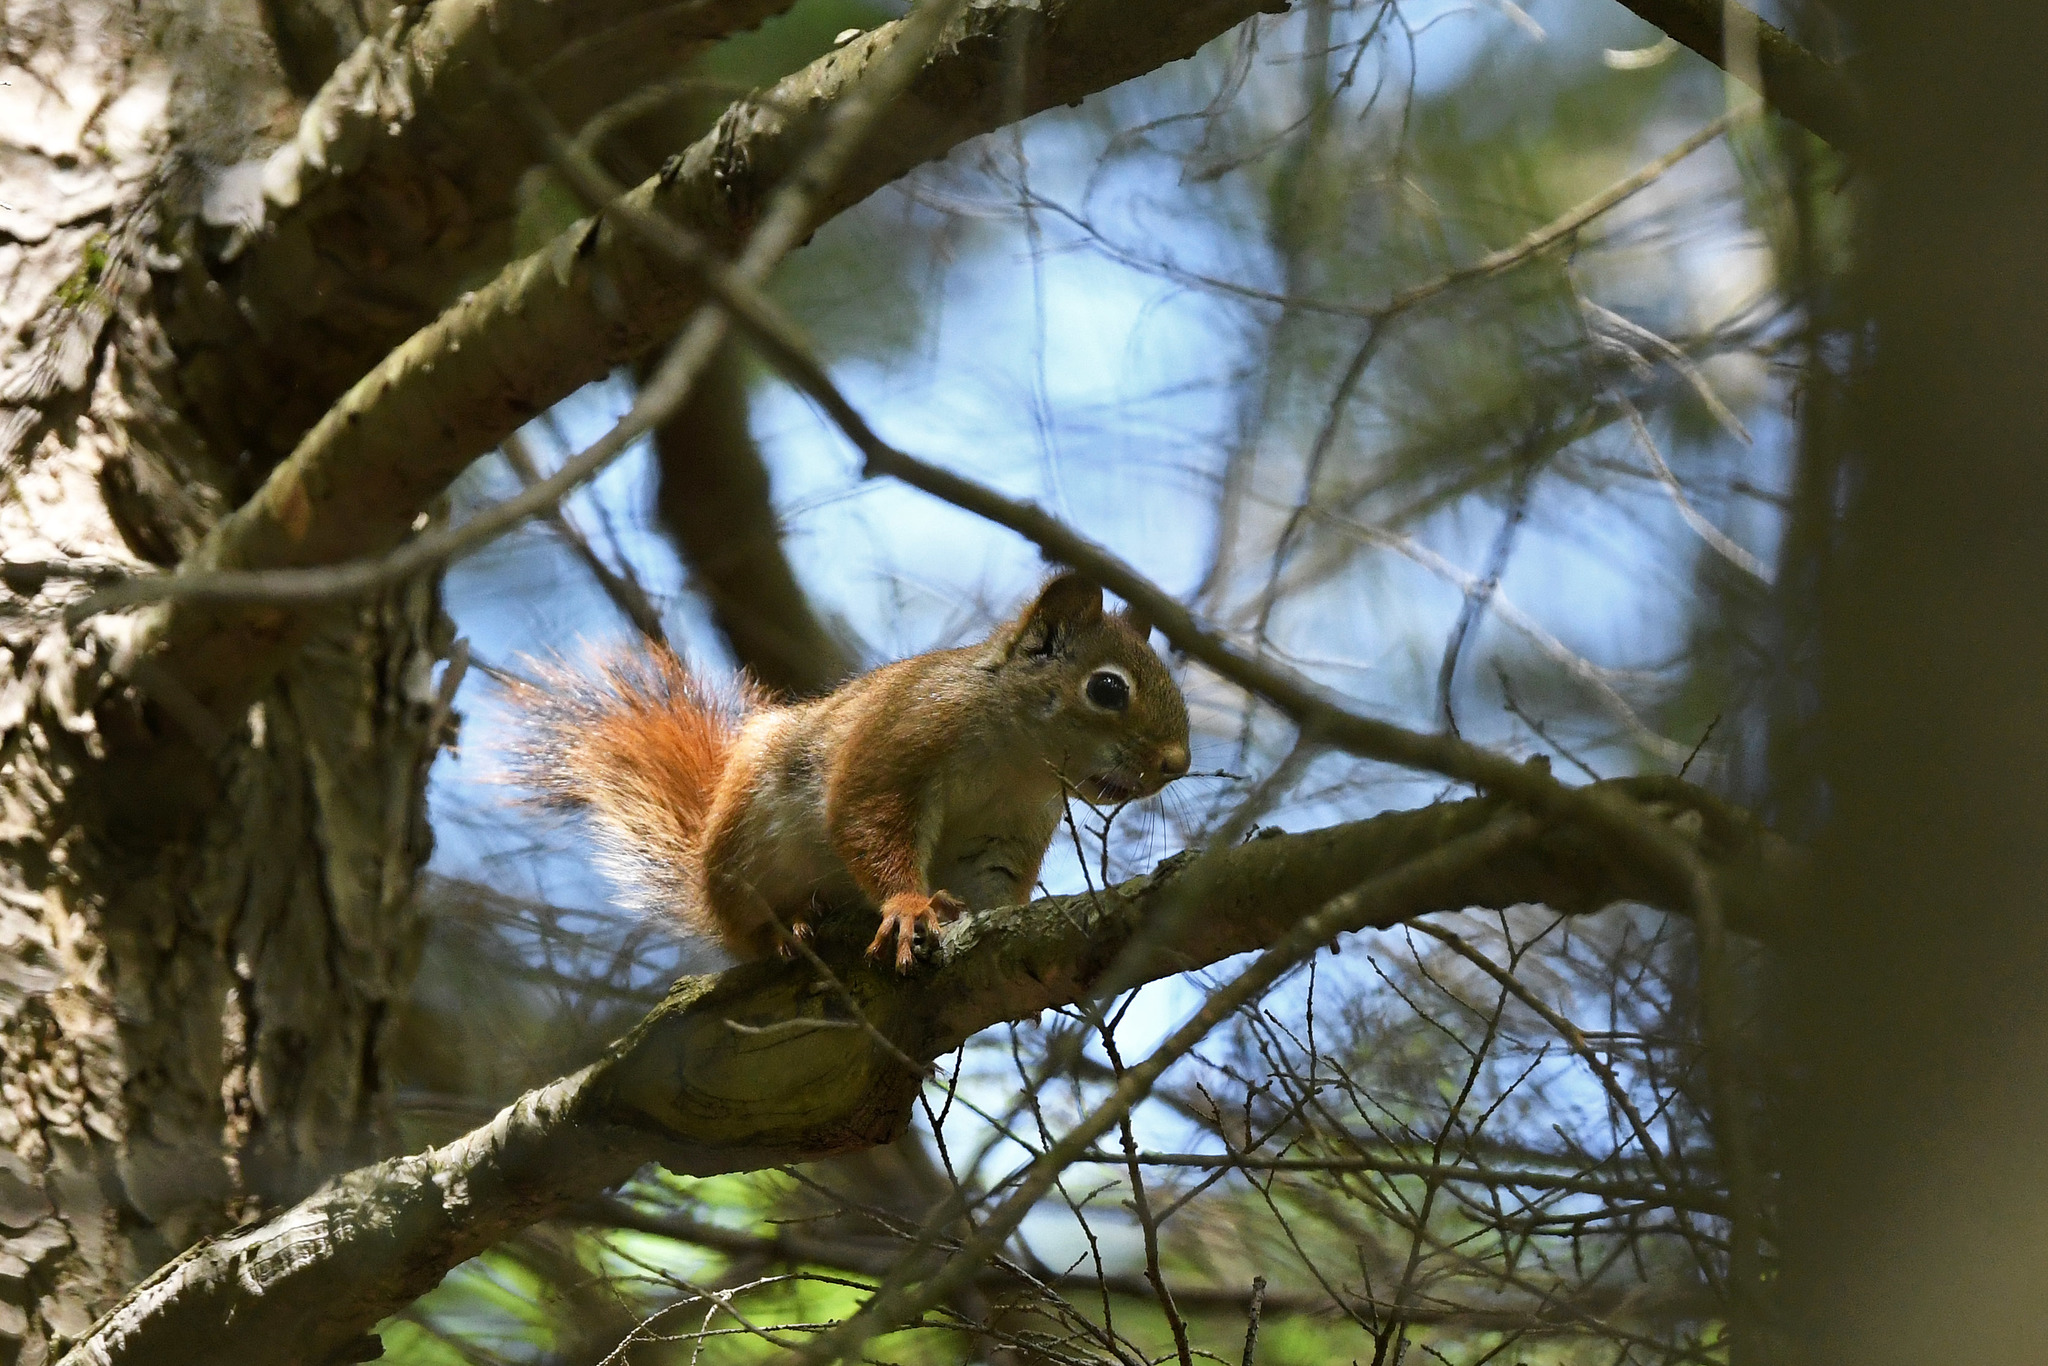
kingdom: Animalia
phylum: Chordata
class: Mammalia
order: Rodentia
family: Sciuridae
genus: Tamiasciurus
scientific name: Tamiasciurus hudsonicus
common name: Red squirrel
